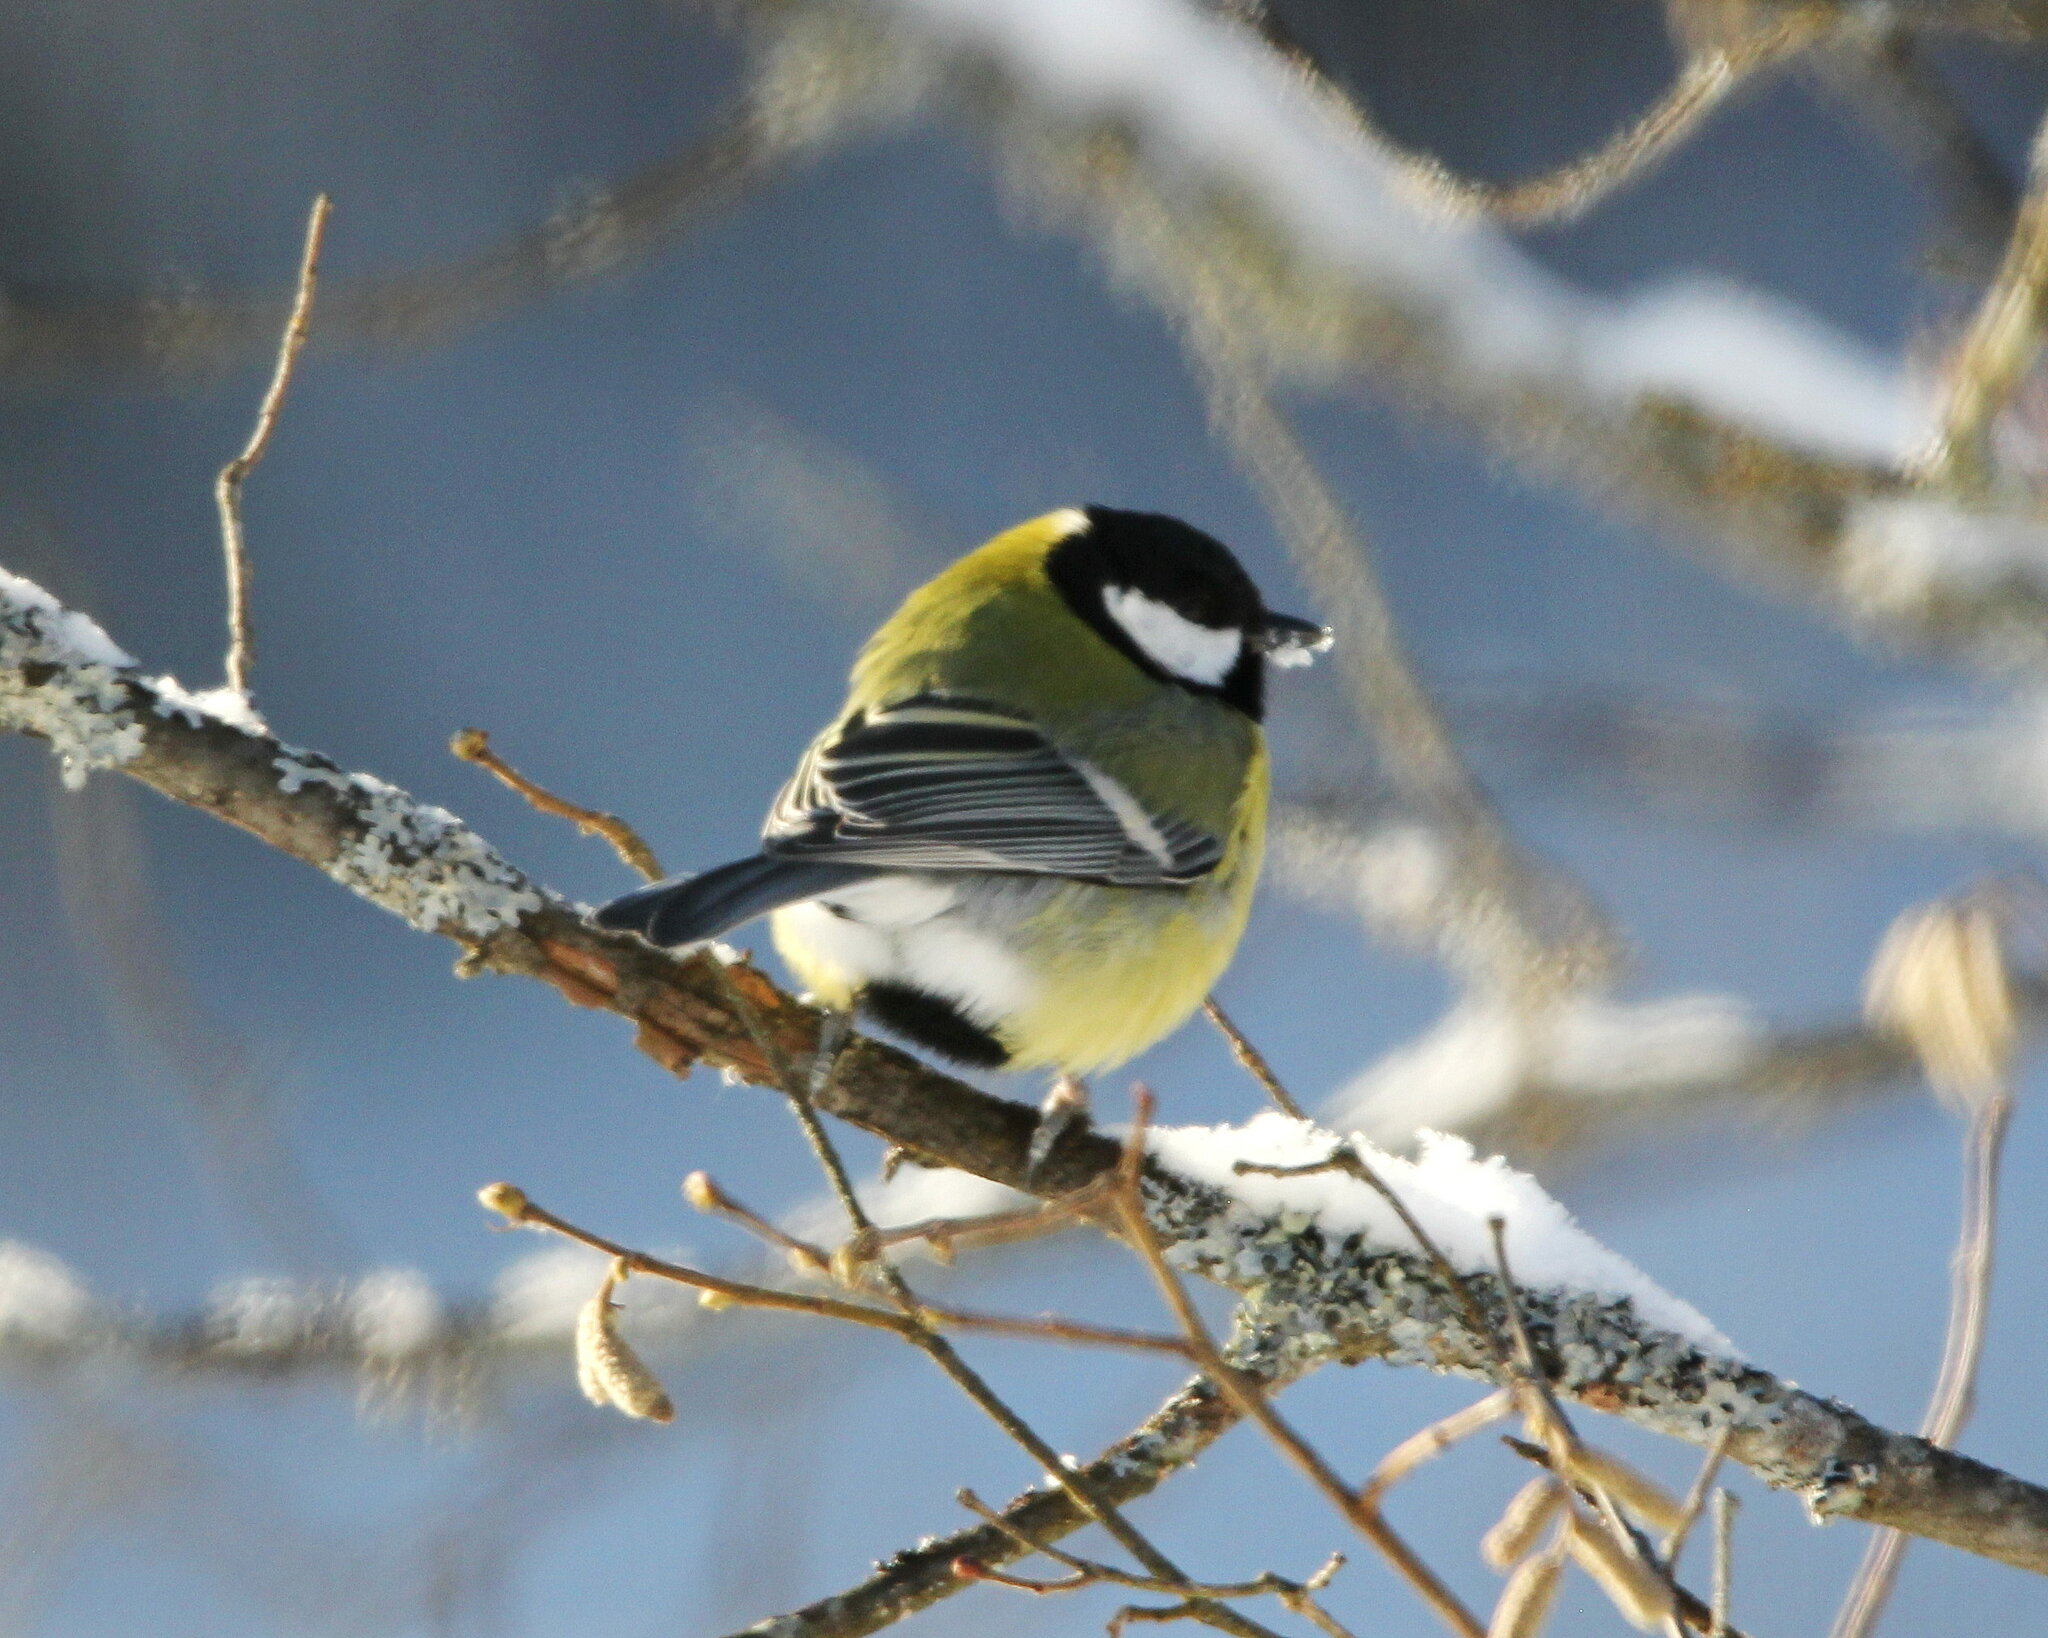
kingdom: Animalia
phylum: Chordata
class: Aves
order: Passeriformes
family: Paridae
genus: Parus
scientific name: Parus major
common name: Great tit
